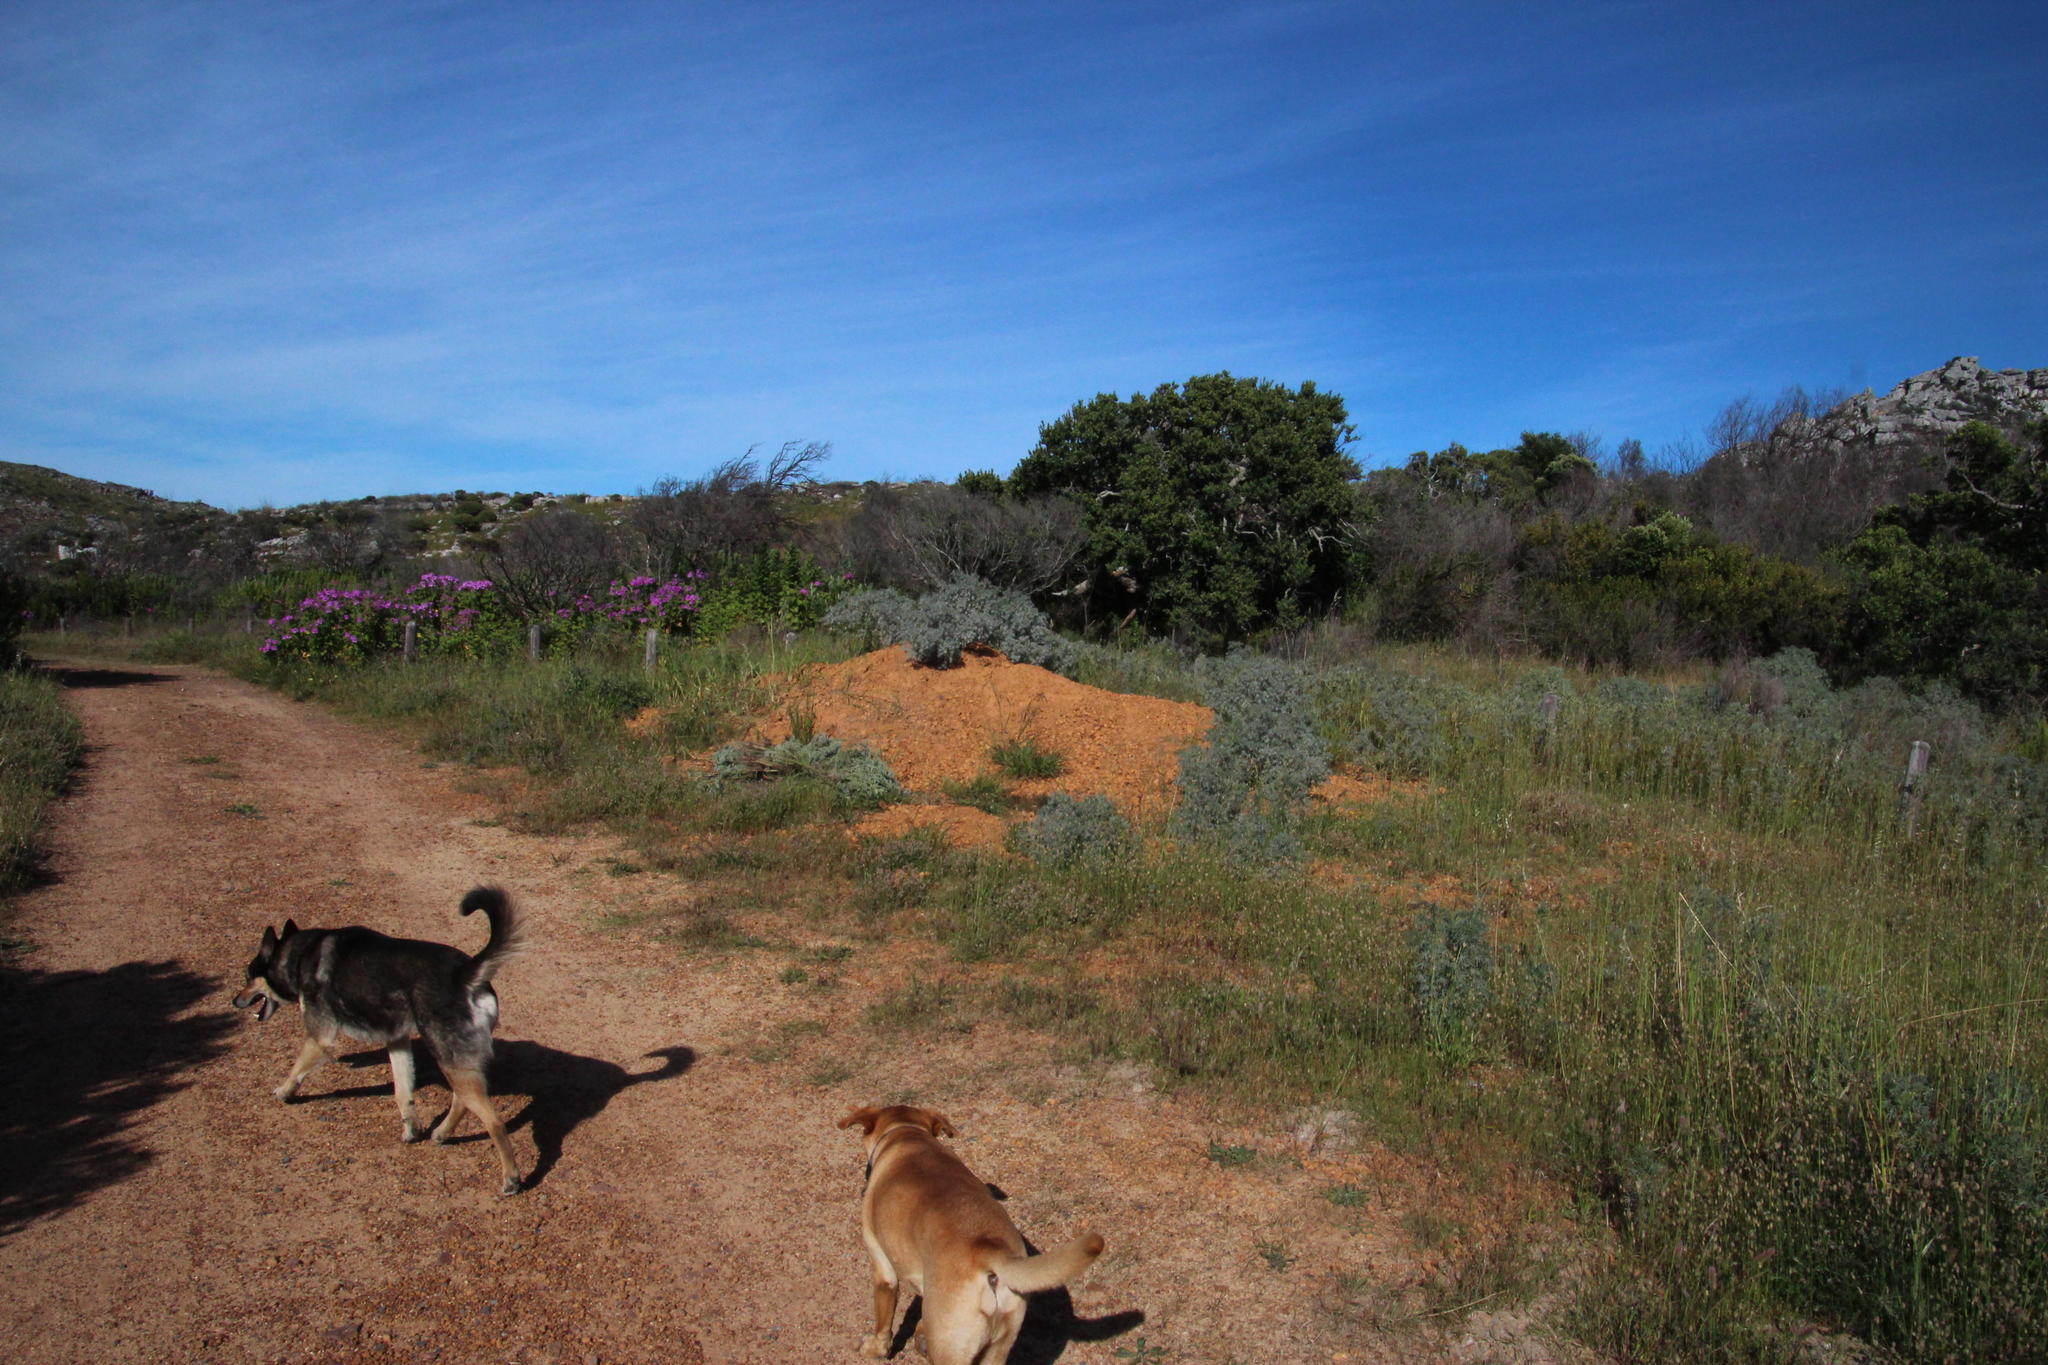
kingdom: Plantae
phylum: Tracheophyta
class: Magnoliopsida
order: Fabales
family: Fabaceae
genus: Lupinus
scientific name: Lupinus angustifolius
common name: Narrow-leaved lupin
